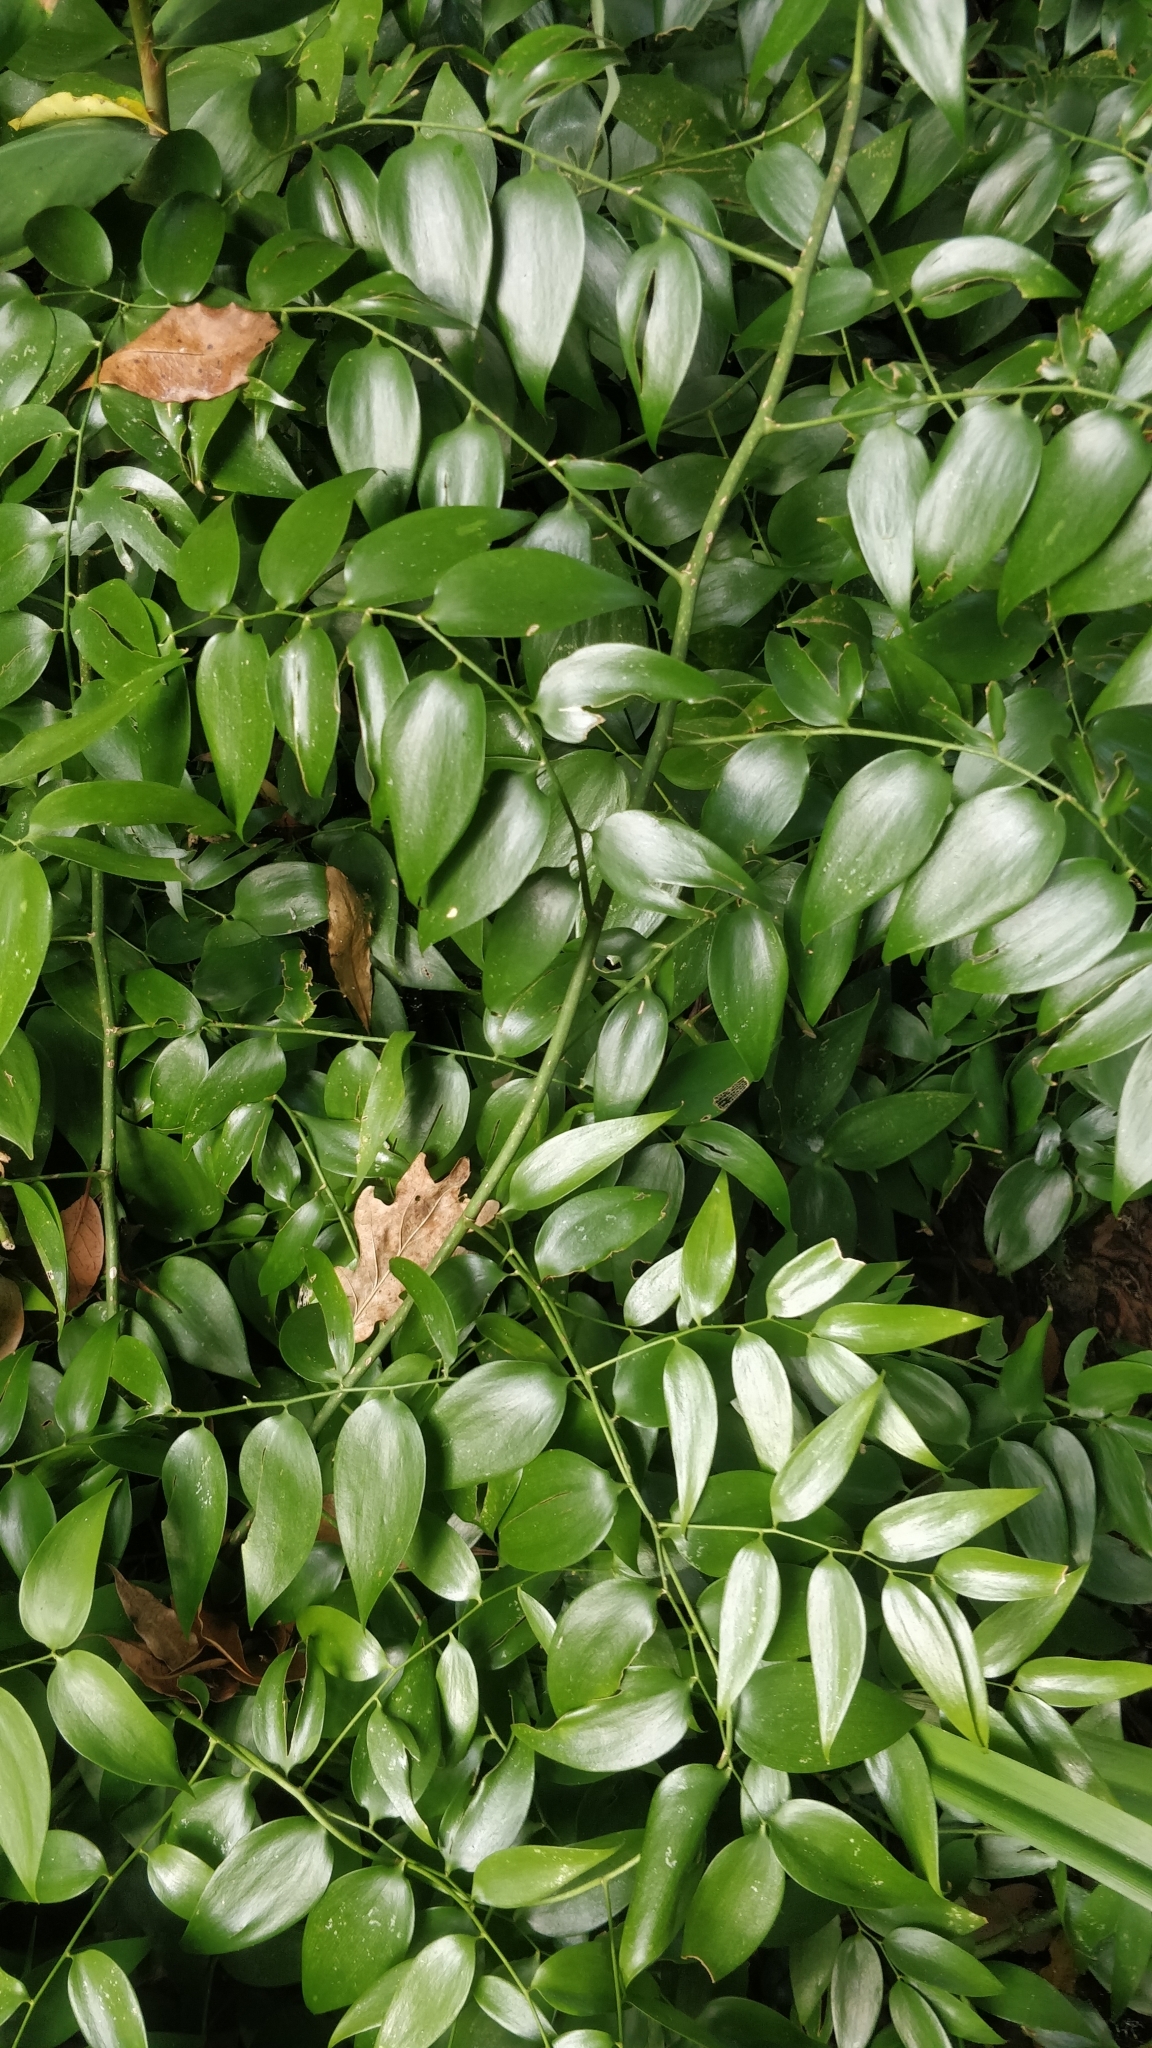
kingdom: Plantae
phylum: Tracheophyta
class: Liliopsida
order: Asparagales
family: Asparagaceae
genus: Semele
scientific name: Semele androgyna
